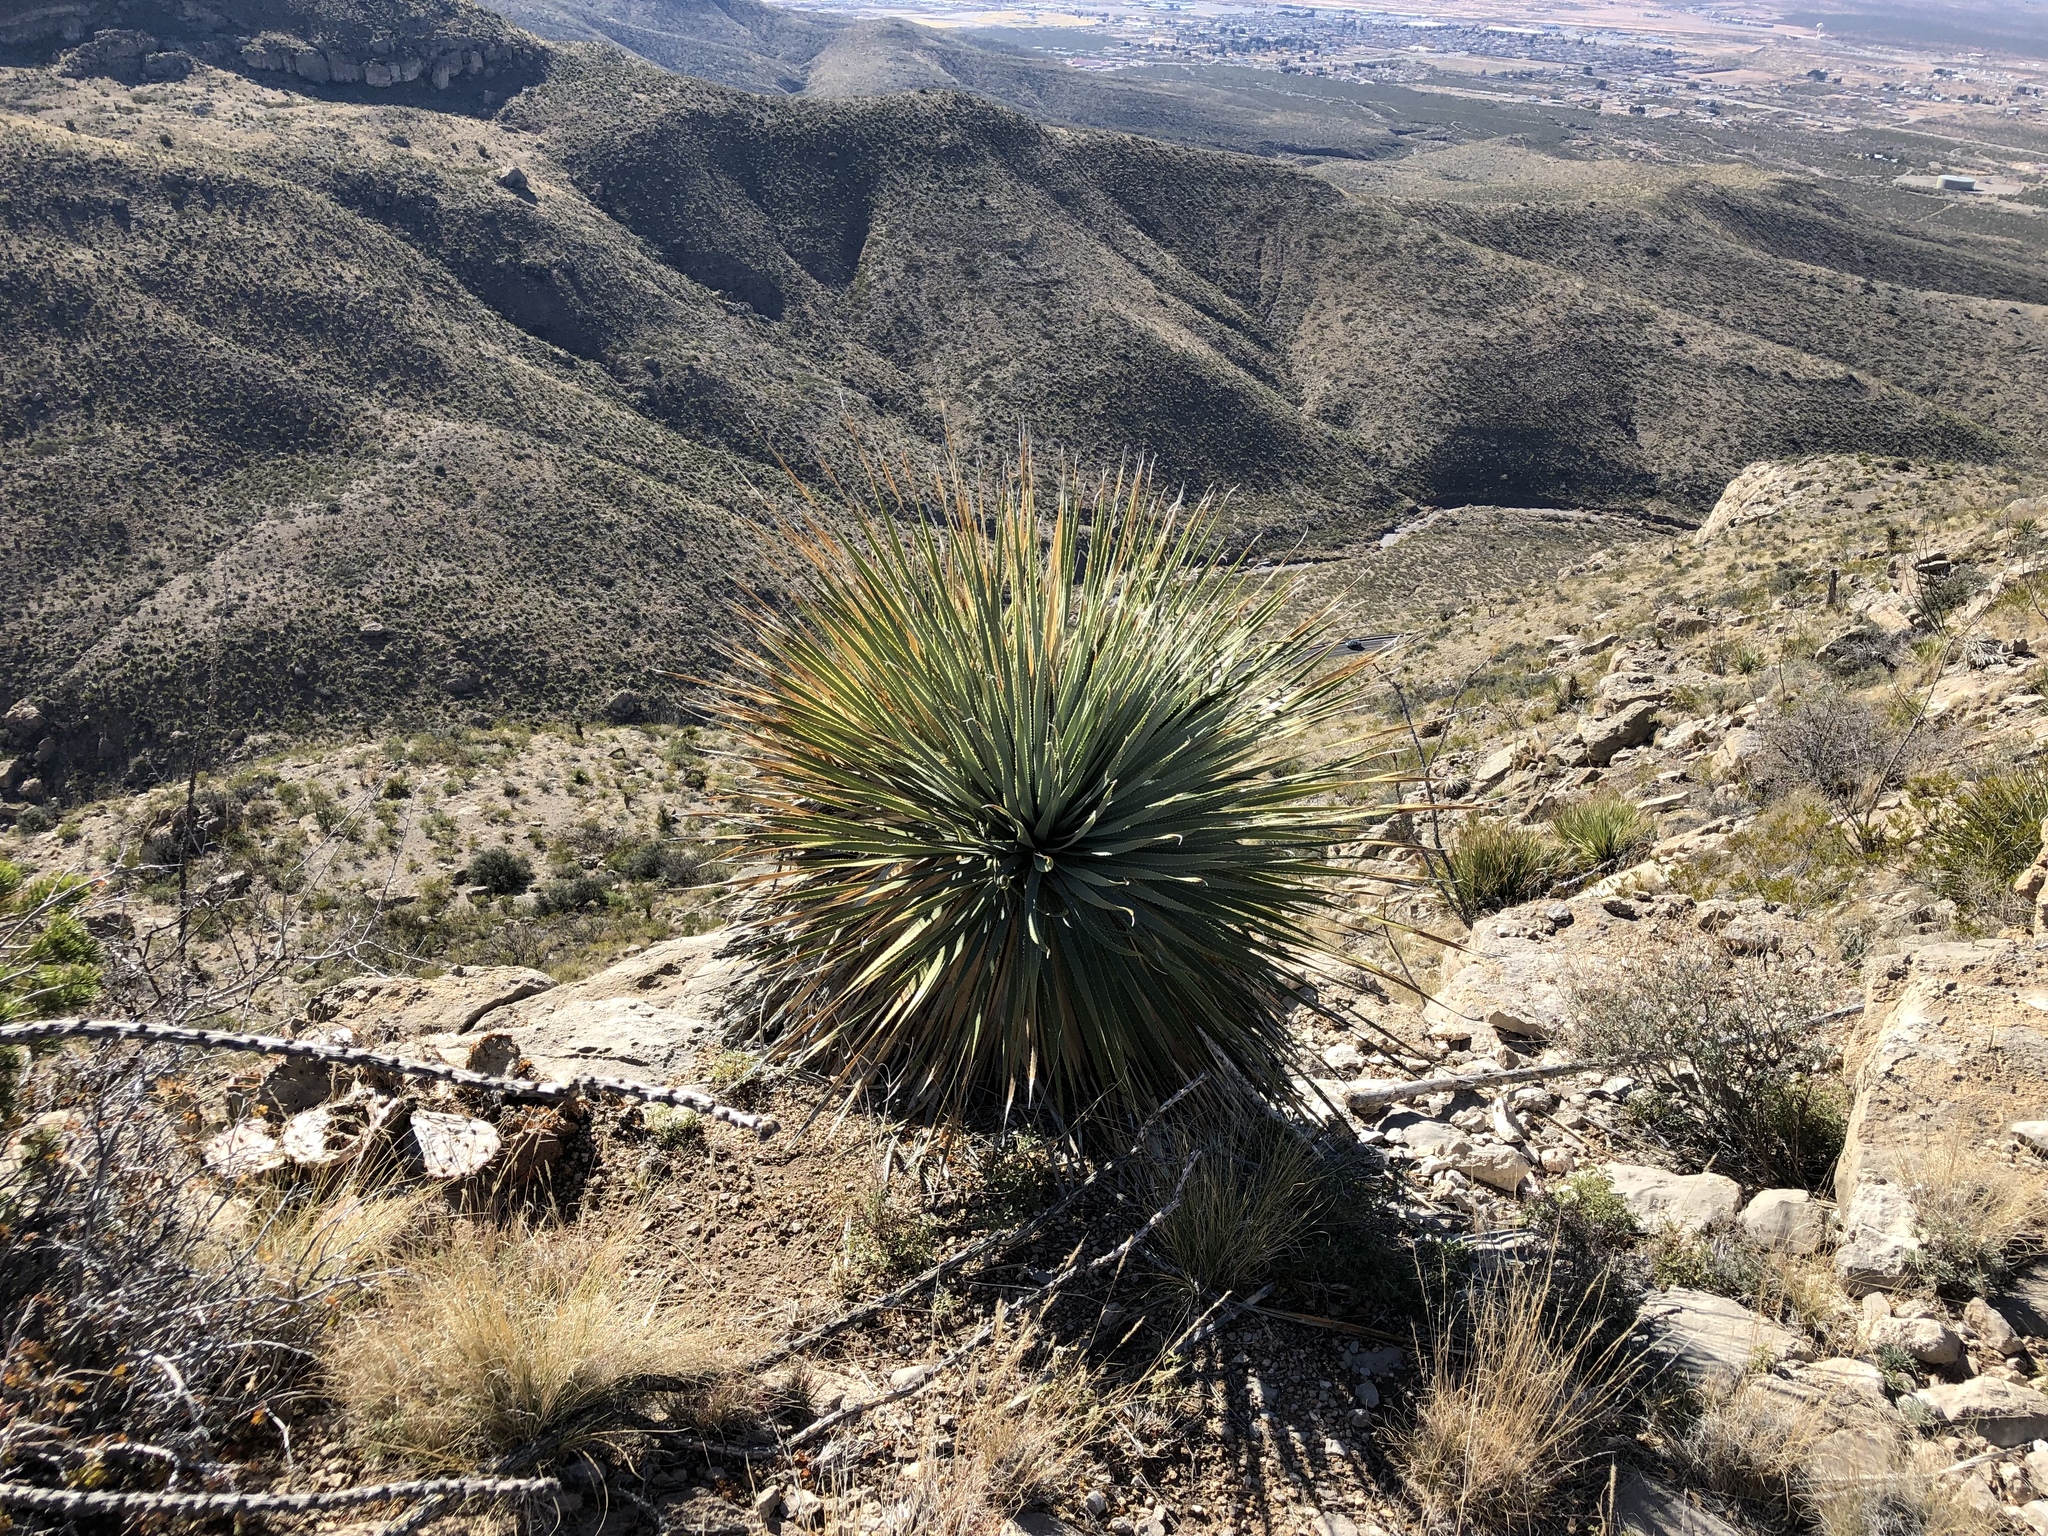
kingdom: Plantae
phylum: Tracheophyta
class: Liliopsida
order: Asparagales
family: Asparagaceae
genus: Dasylirion
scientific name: Dasylirion wheeleri
